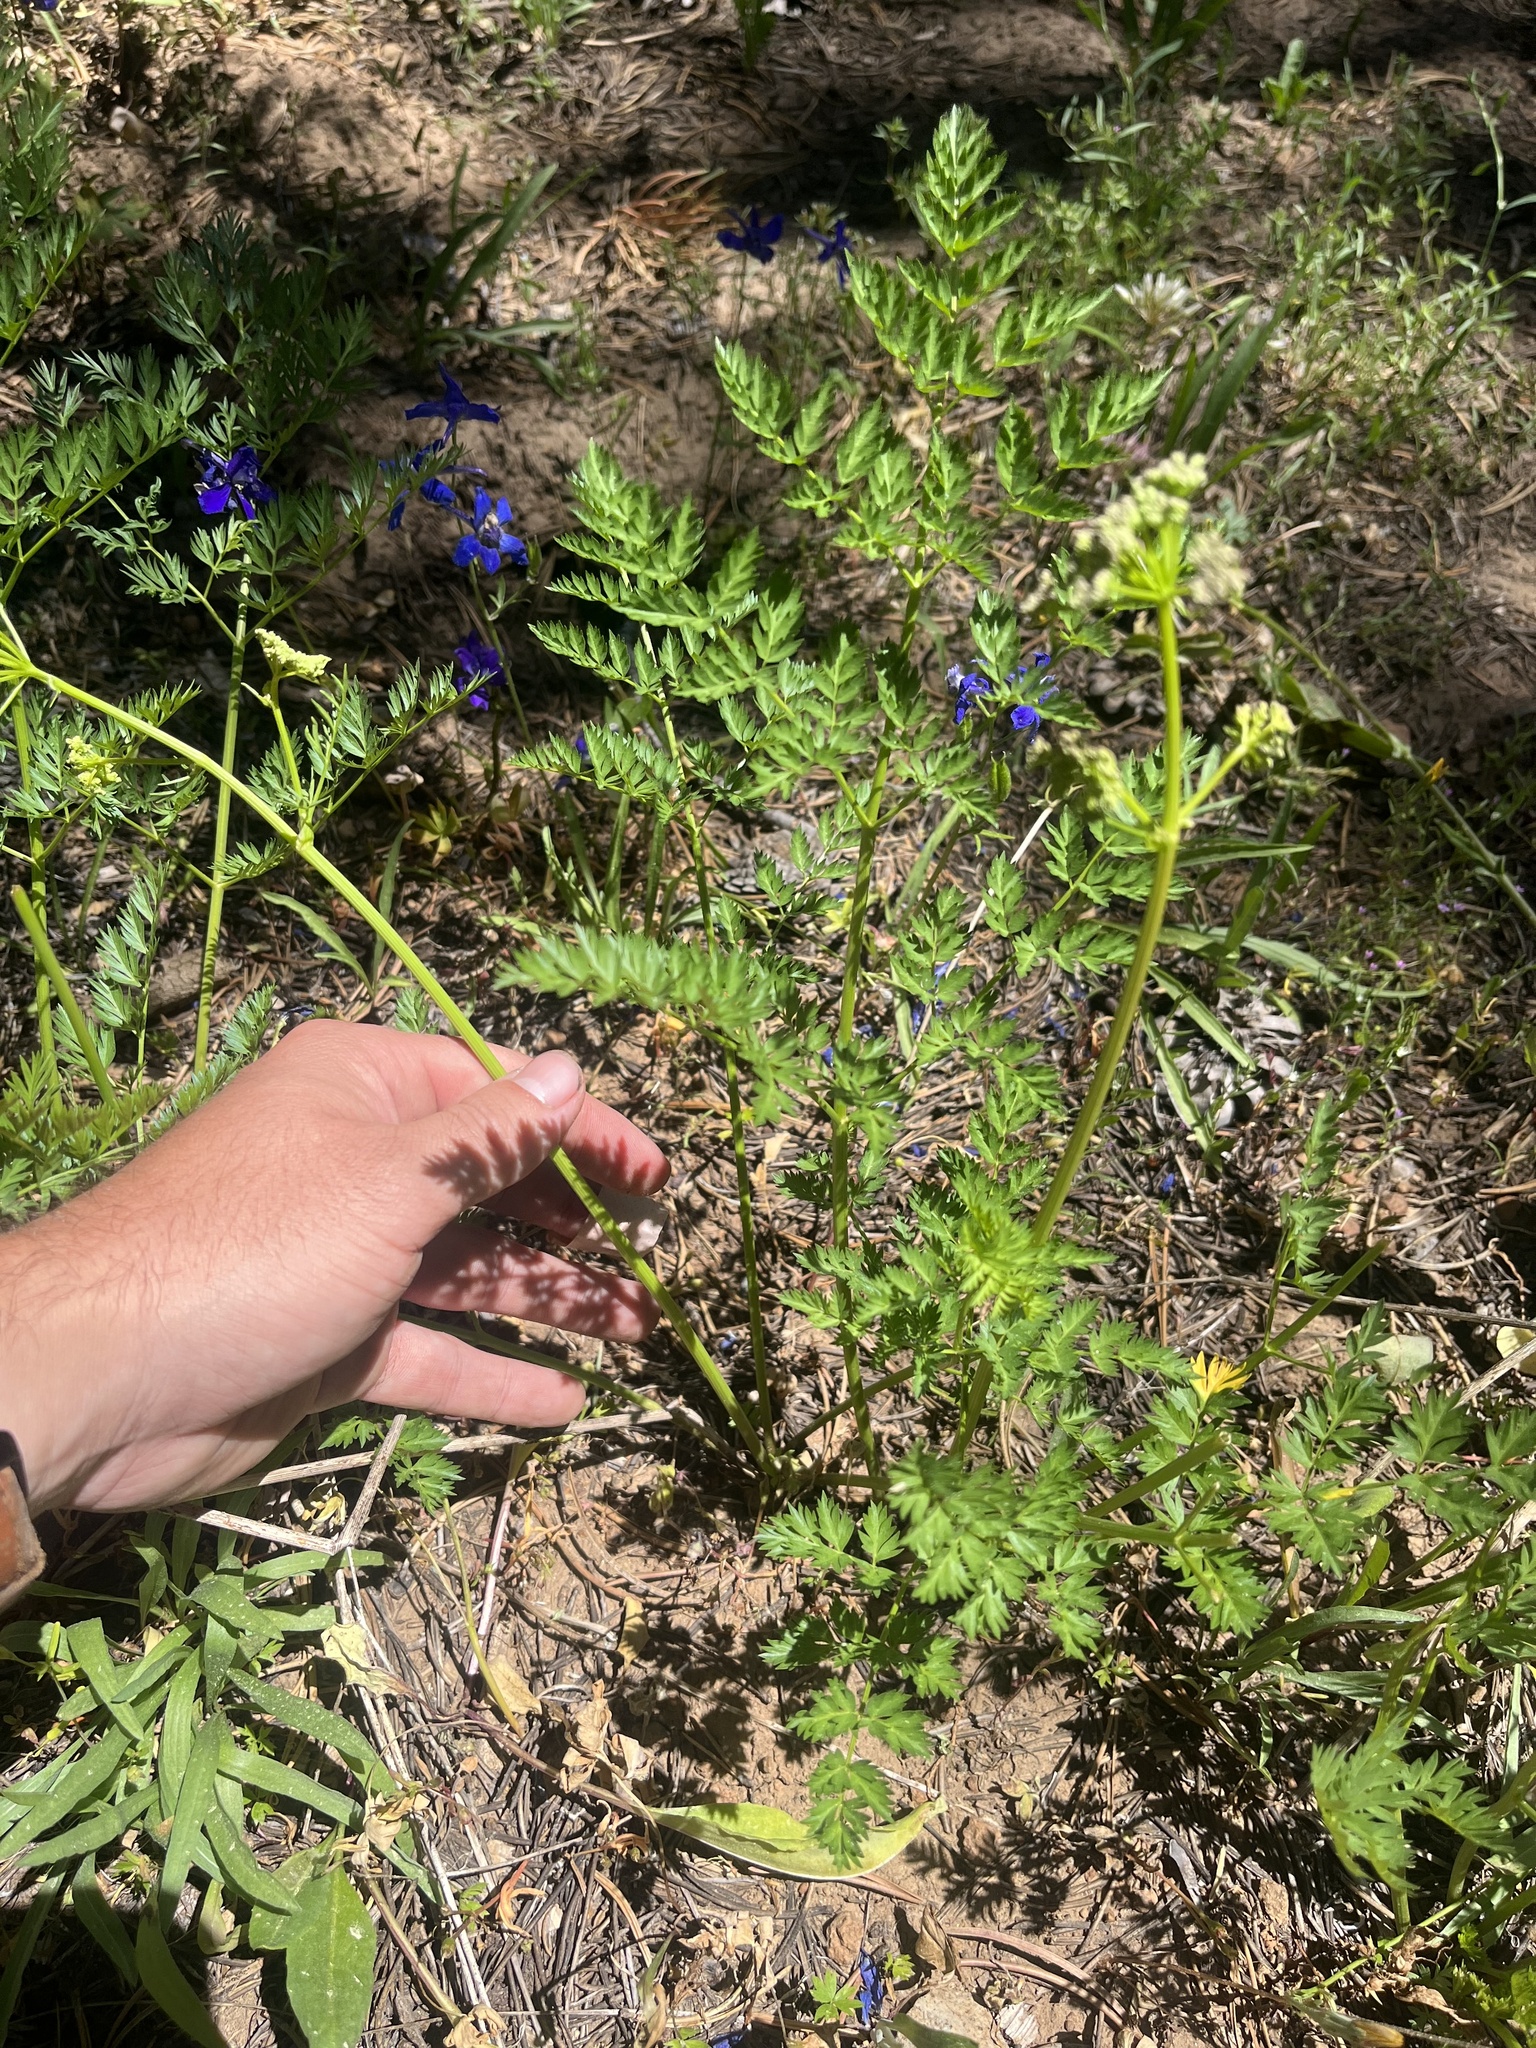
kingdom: Plantae
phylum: Tracheophyta
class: Magnoliopsida
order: Apiales
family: Apiaceae
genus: Ligusticum
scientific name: Ligusticum grayi
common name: Gray's licorice-root
